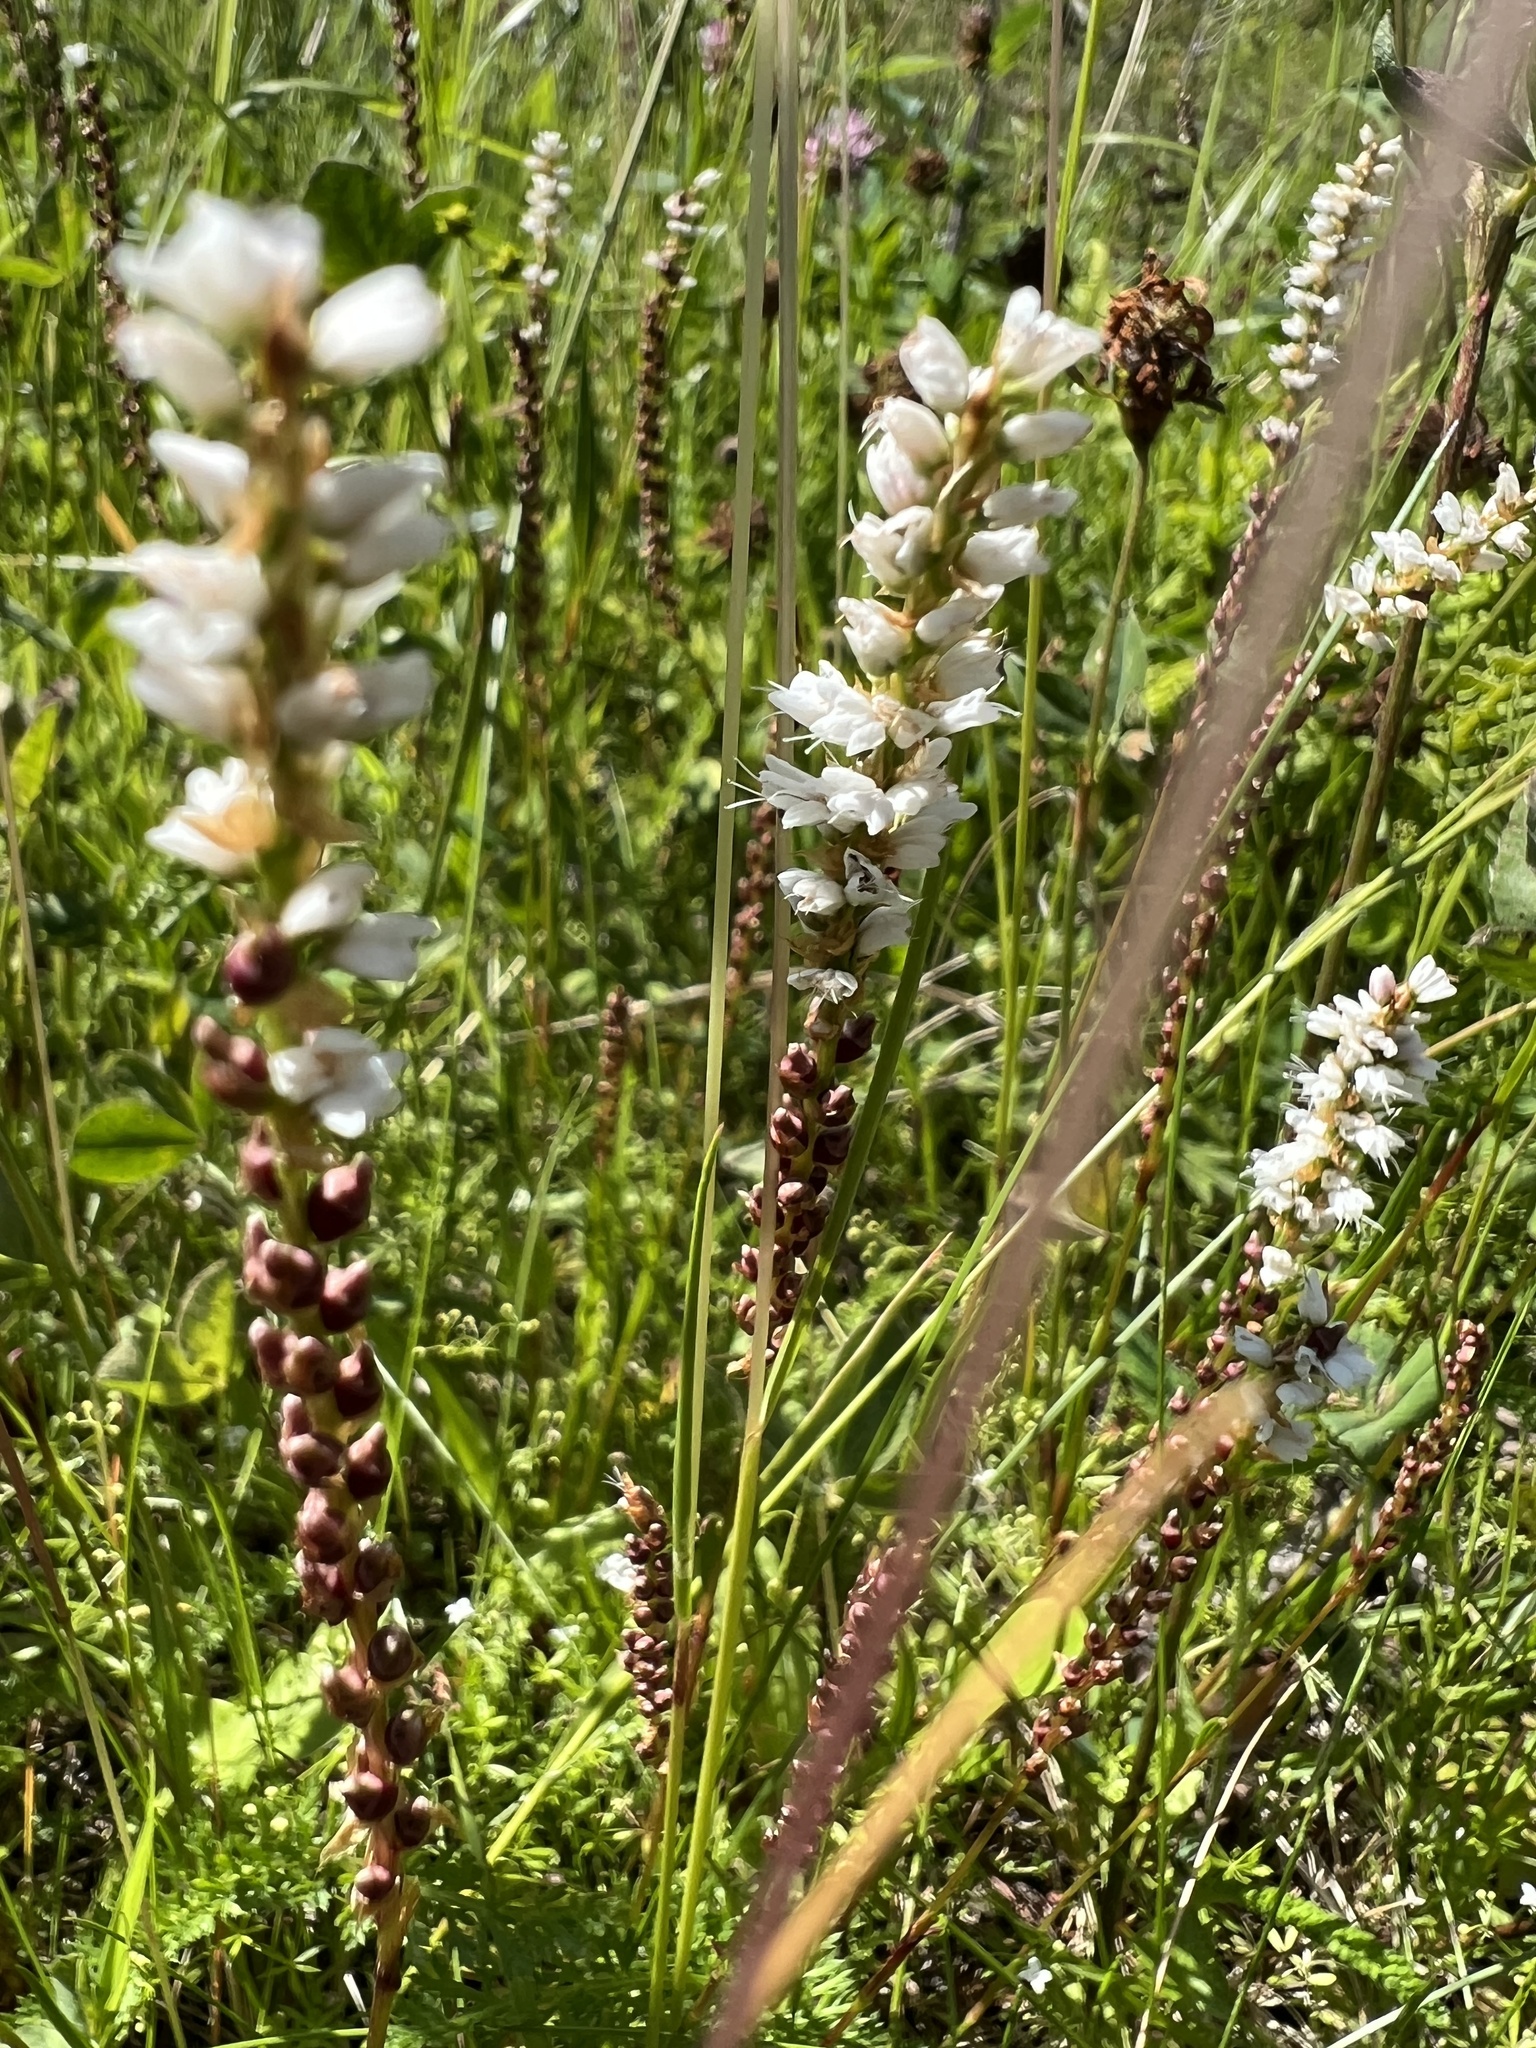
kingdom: Plantae
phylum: Tracheophyta
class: Magnoliopsida
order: Caryophyllales
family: Polygonaceae
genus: Bistorta
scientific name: Bistorta vivipara
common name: Alpine bistort
